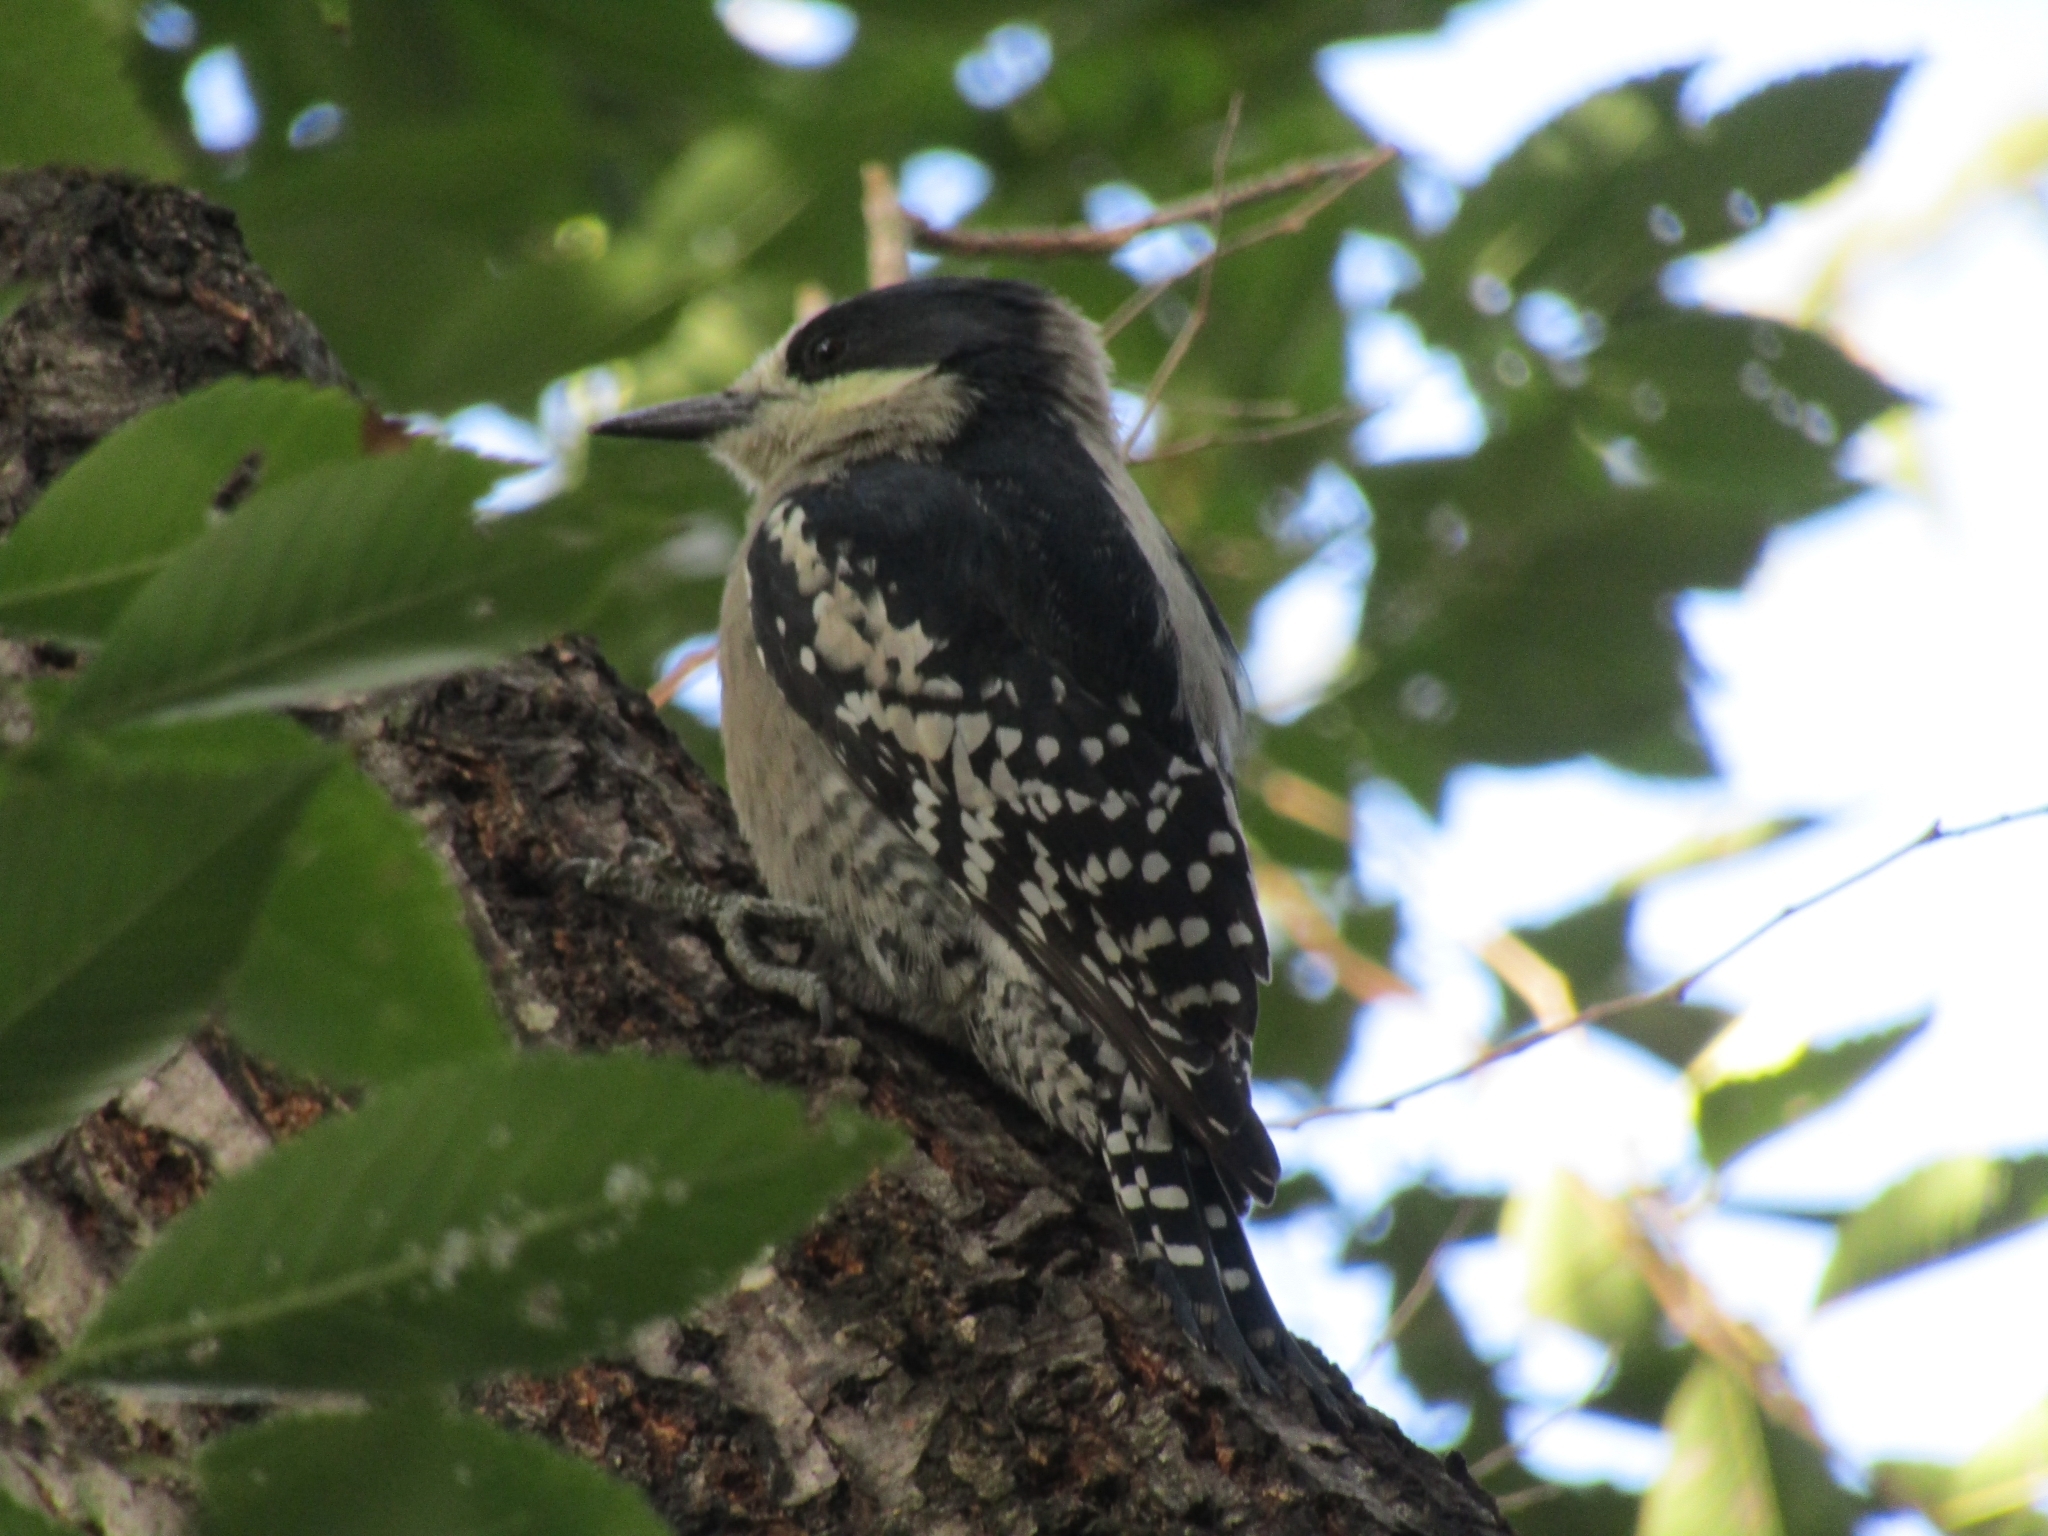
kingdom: Animalia
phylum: Chordata
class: Aves
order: Piciformes
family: Picidae
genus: Melanerpes
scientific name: Melanerpes cactorum
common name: White-fronted woodpecker
